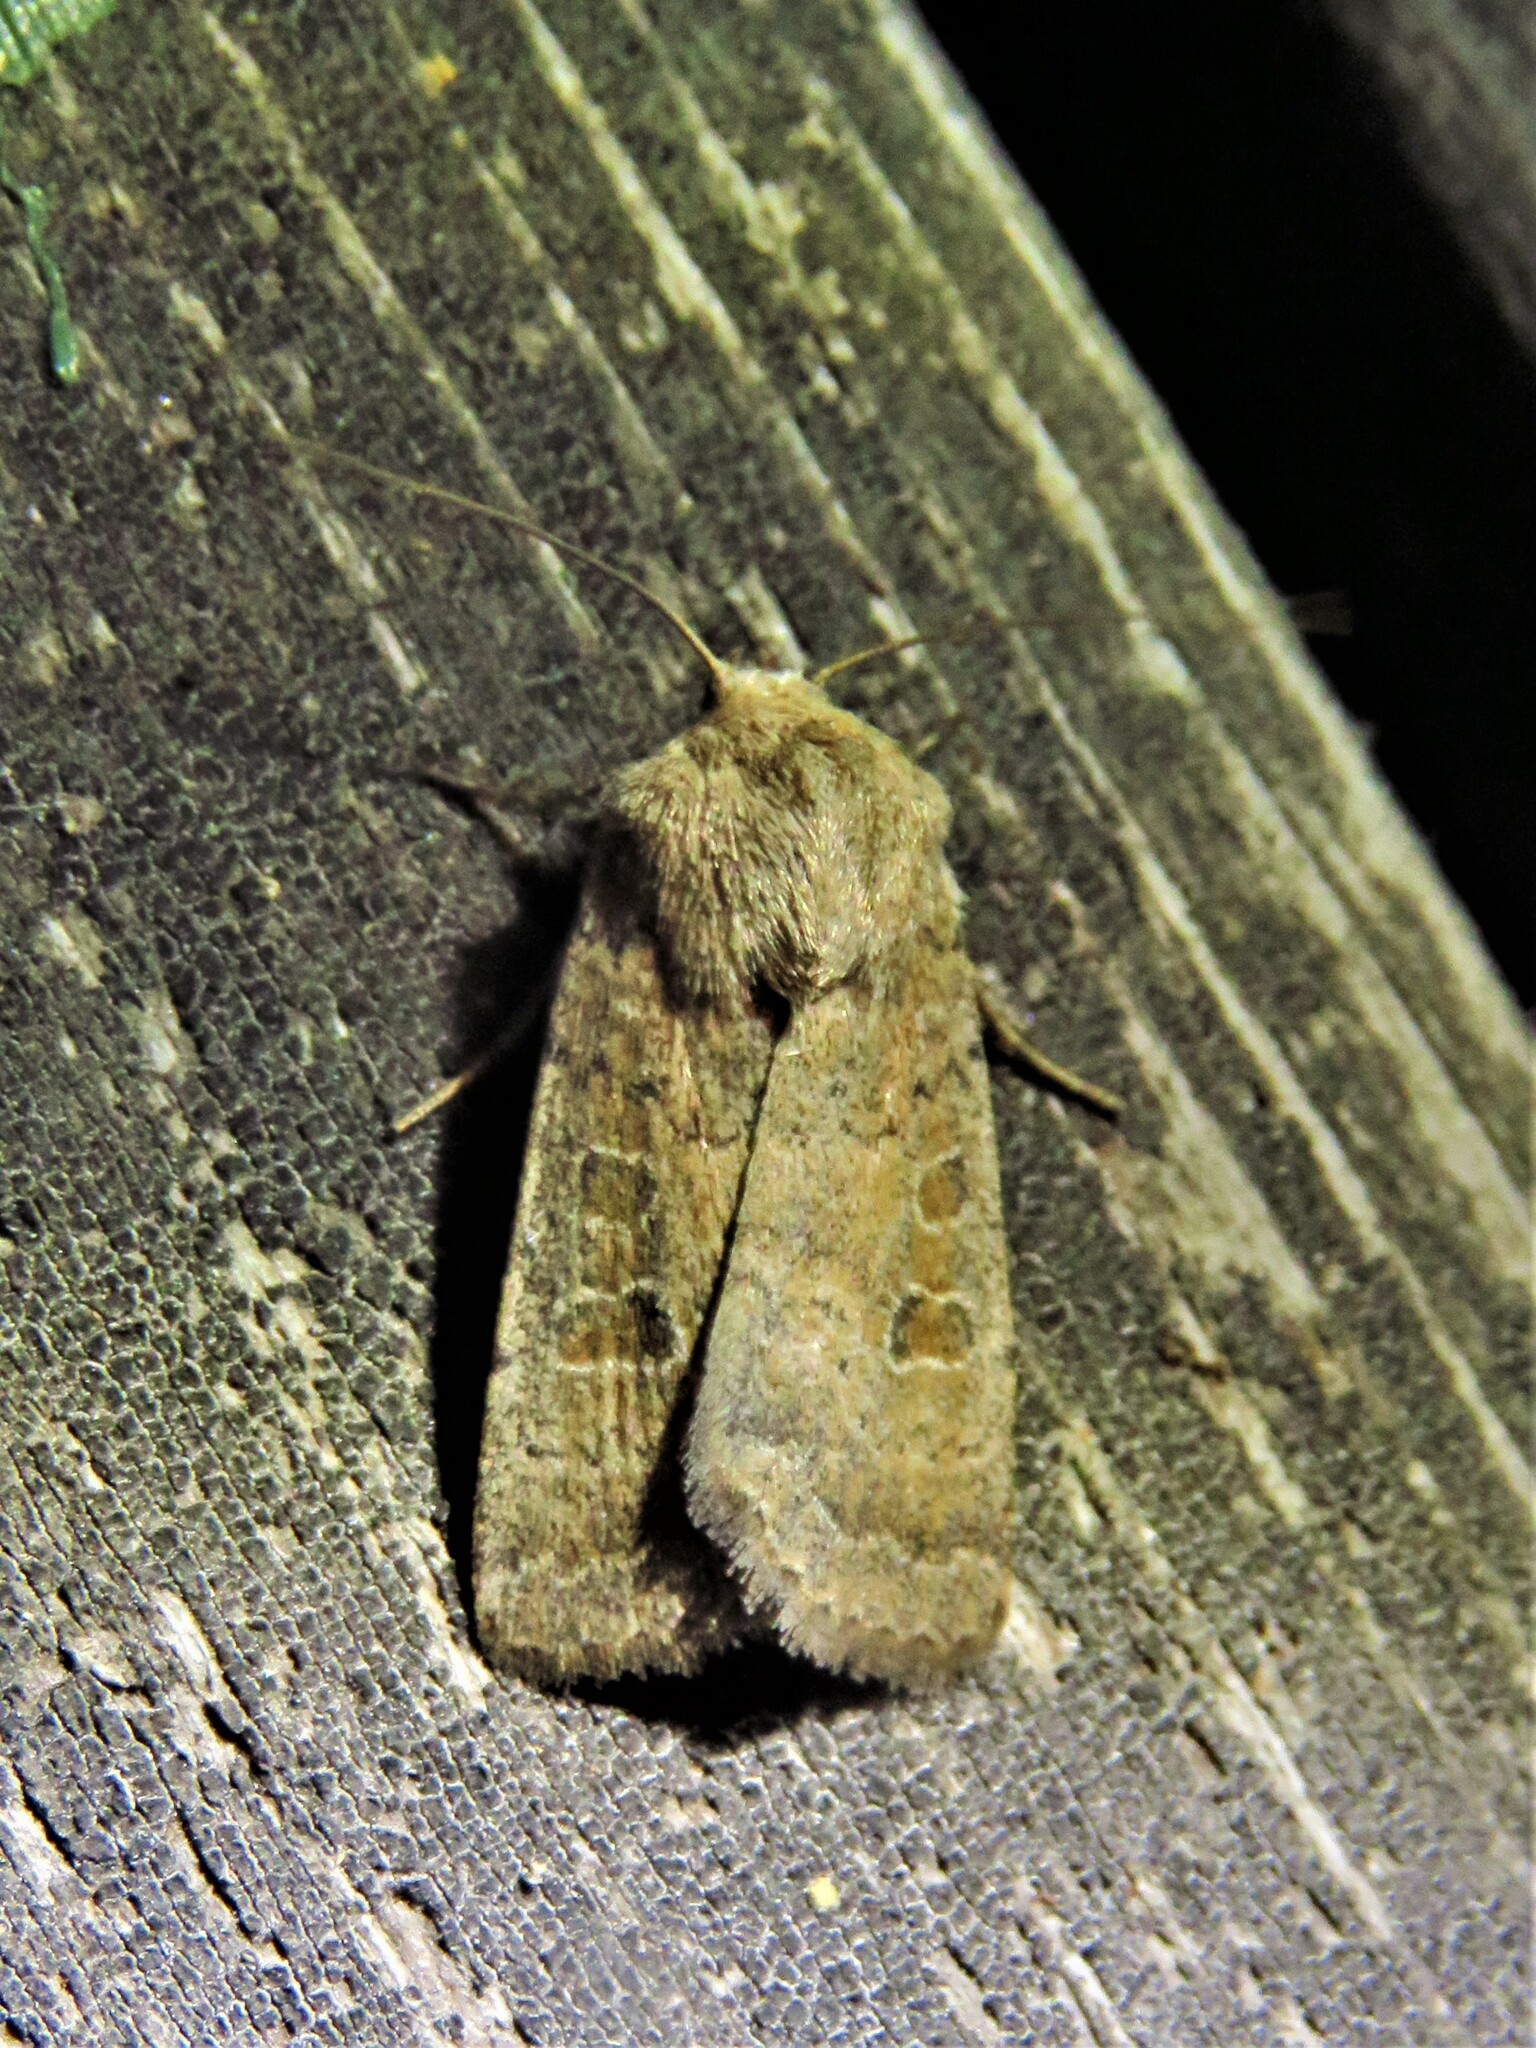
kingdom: Animalia
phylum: Arthropoda
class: Insecta
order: Lepidoptera
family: Noctuidae
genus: Hoplodrina
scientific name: Hoplodrina octogenaria
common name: Uncertain
